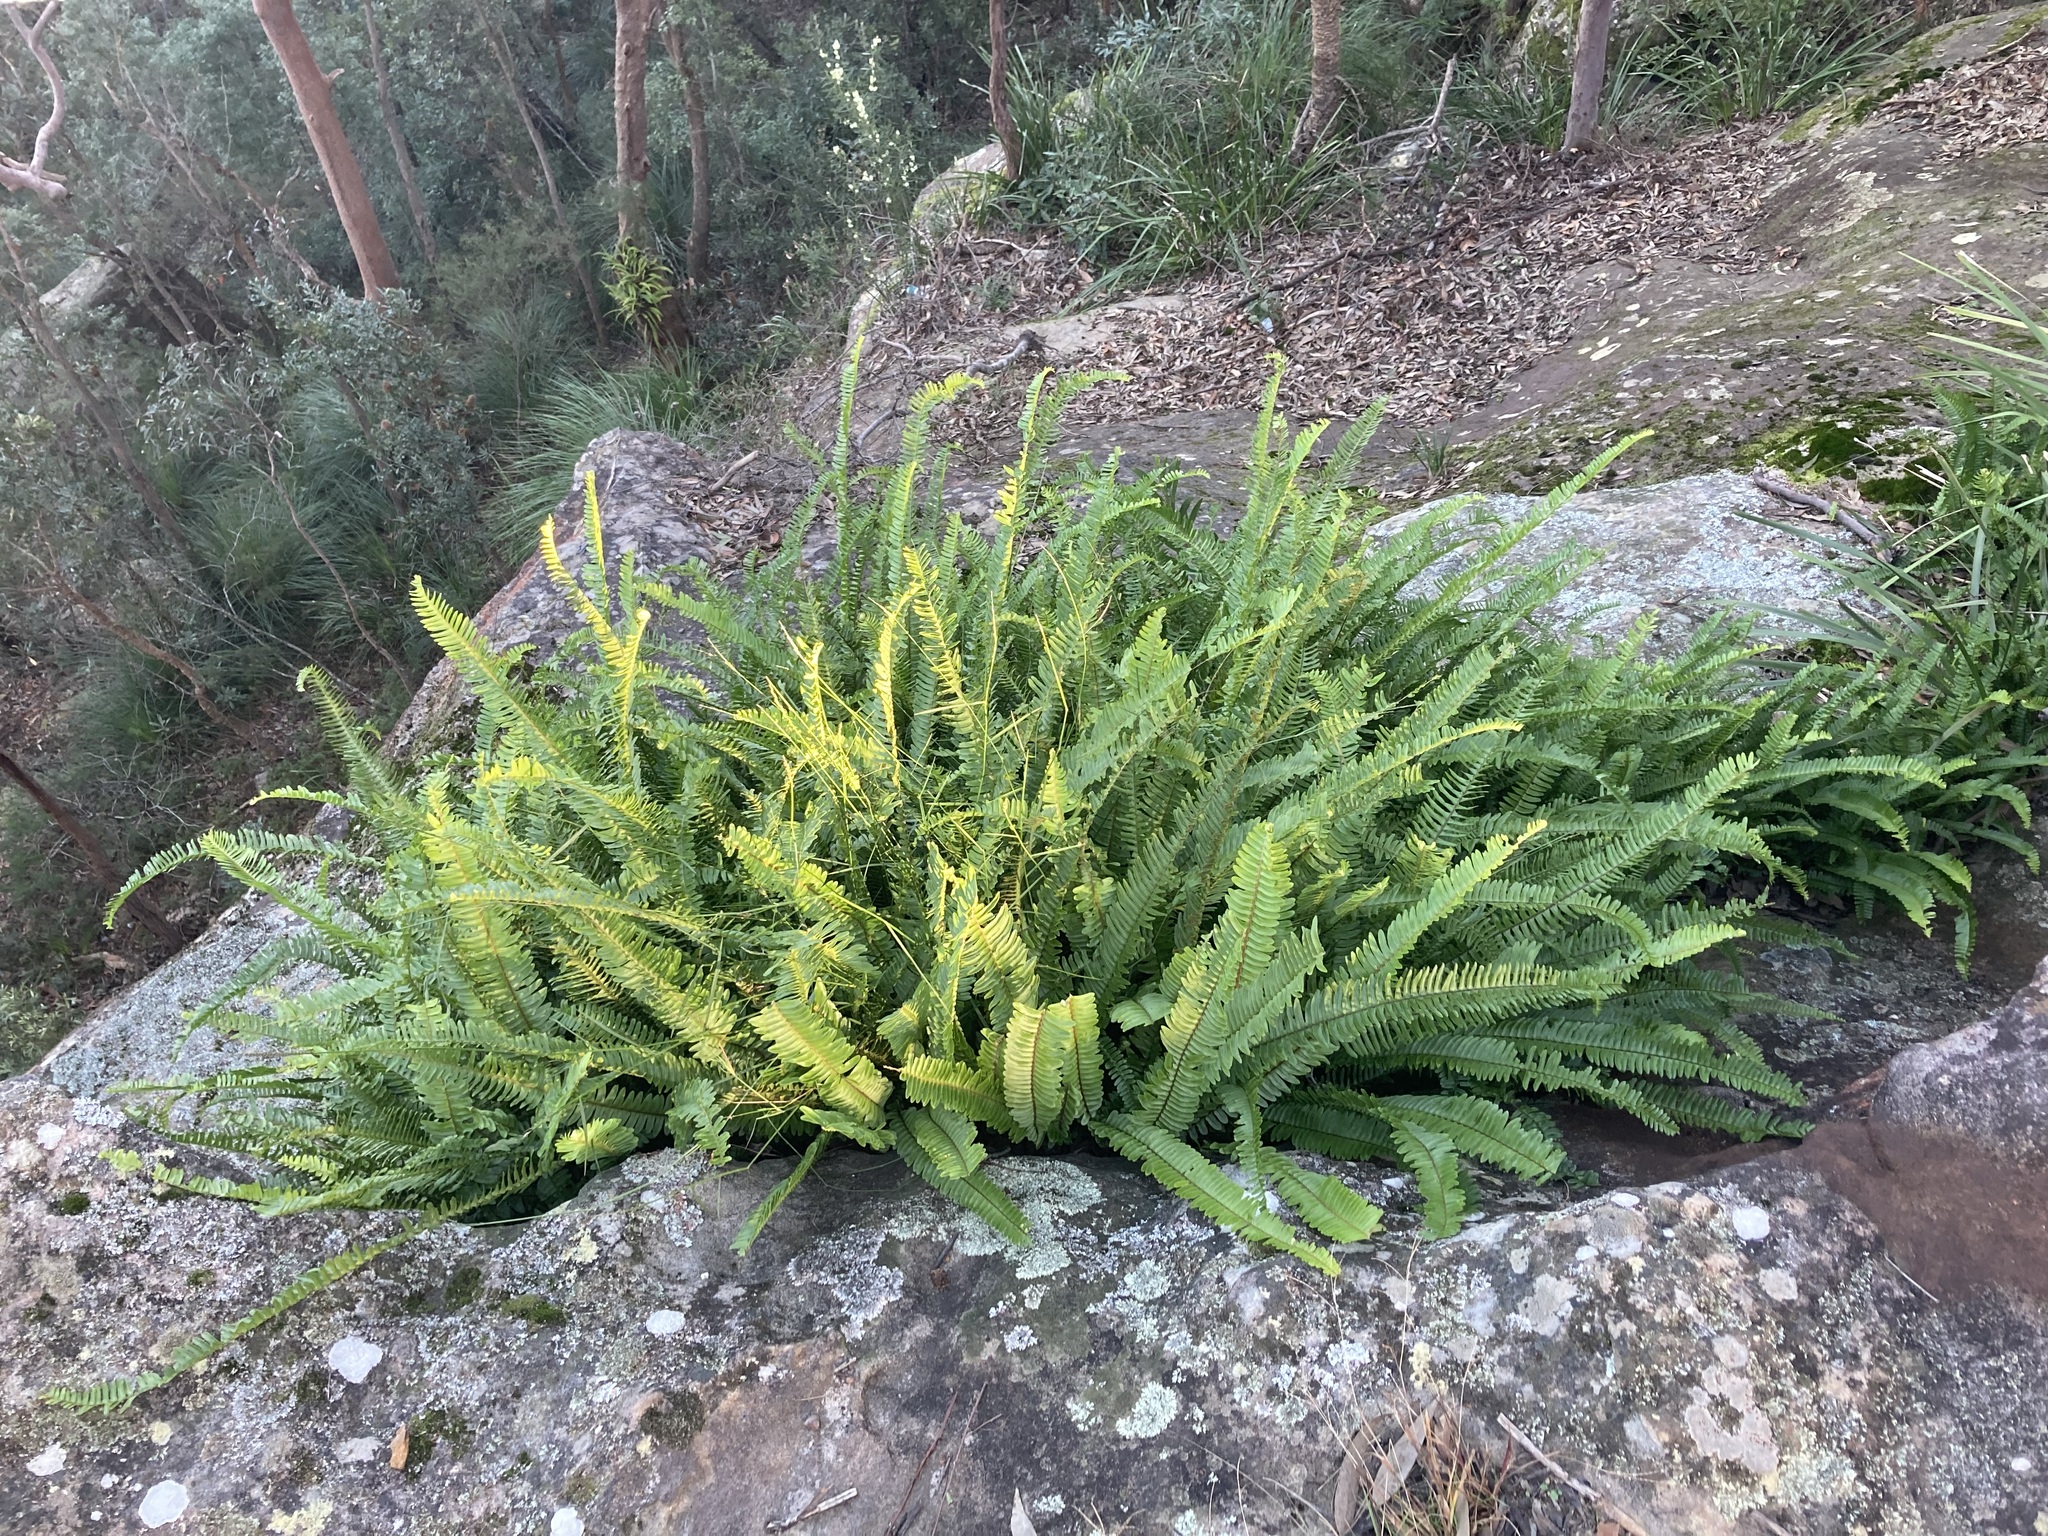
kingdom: Plantae
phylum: Tracheophyta
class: Polypodiopsida
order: Polypodiales
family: Nephrolepidaceae
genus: Nephrolepis
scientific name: Nephrolepis cordifolia
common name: Narrow swordfern
